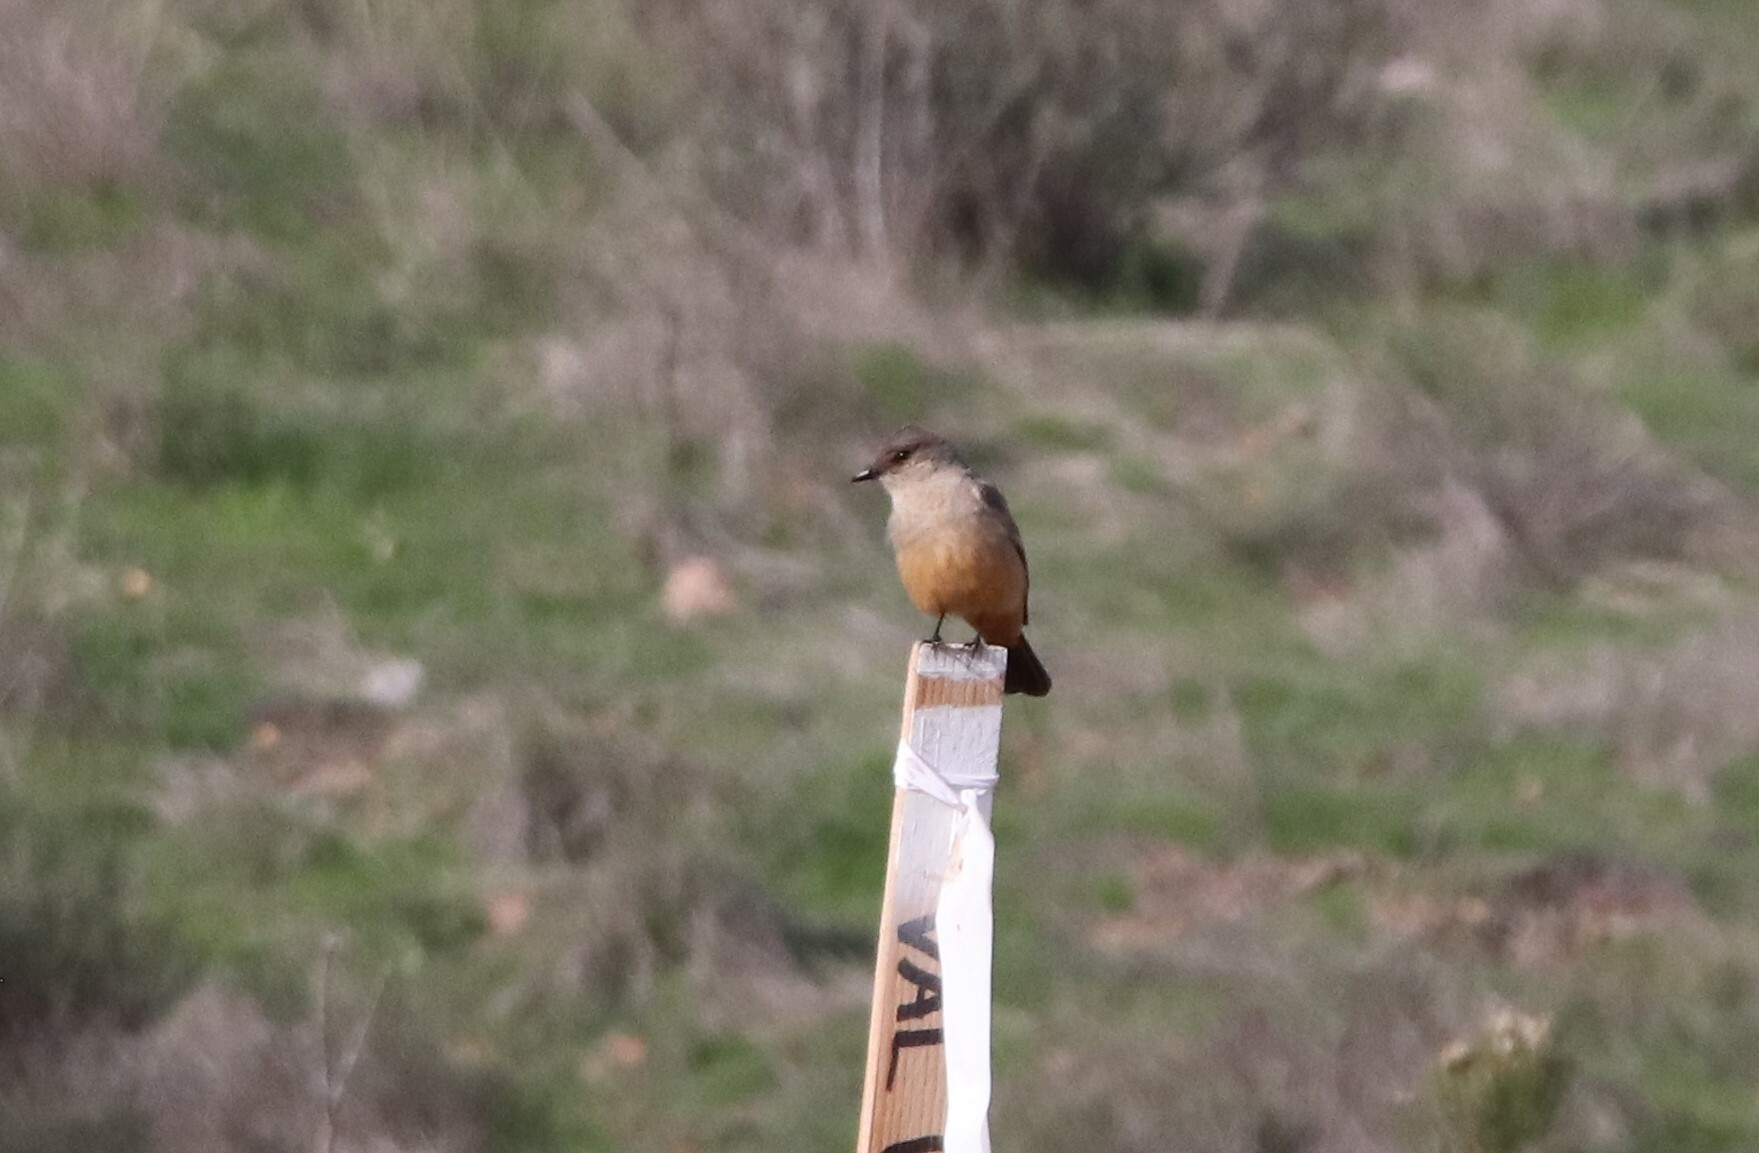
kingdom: Animalia
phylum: Chordata
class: Aves
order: Passeriformes
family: Tyrannidae
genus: Sayornis
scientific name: Sayornis saya
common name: Say's phoebe
